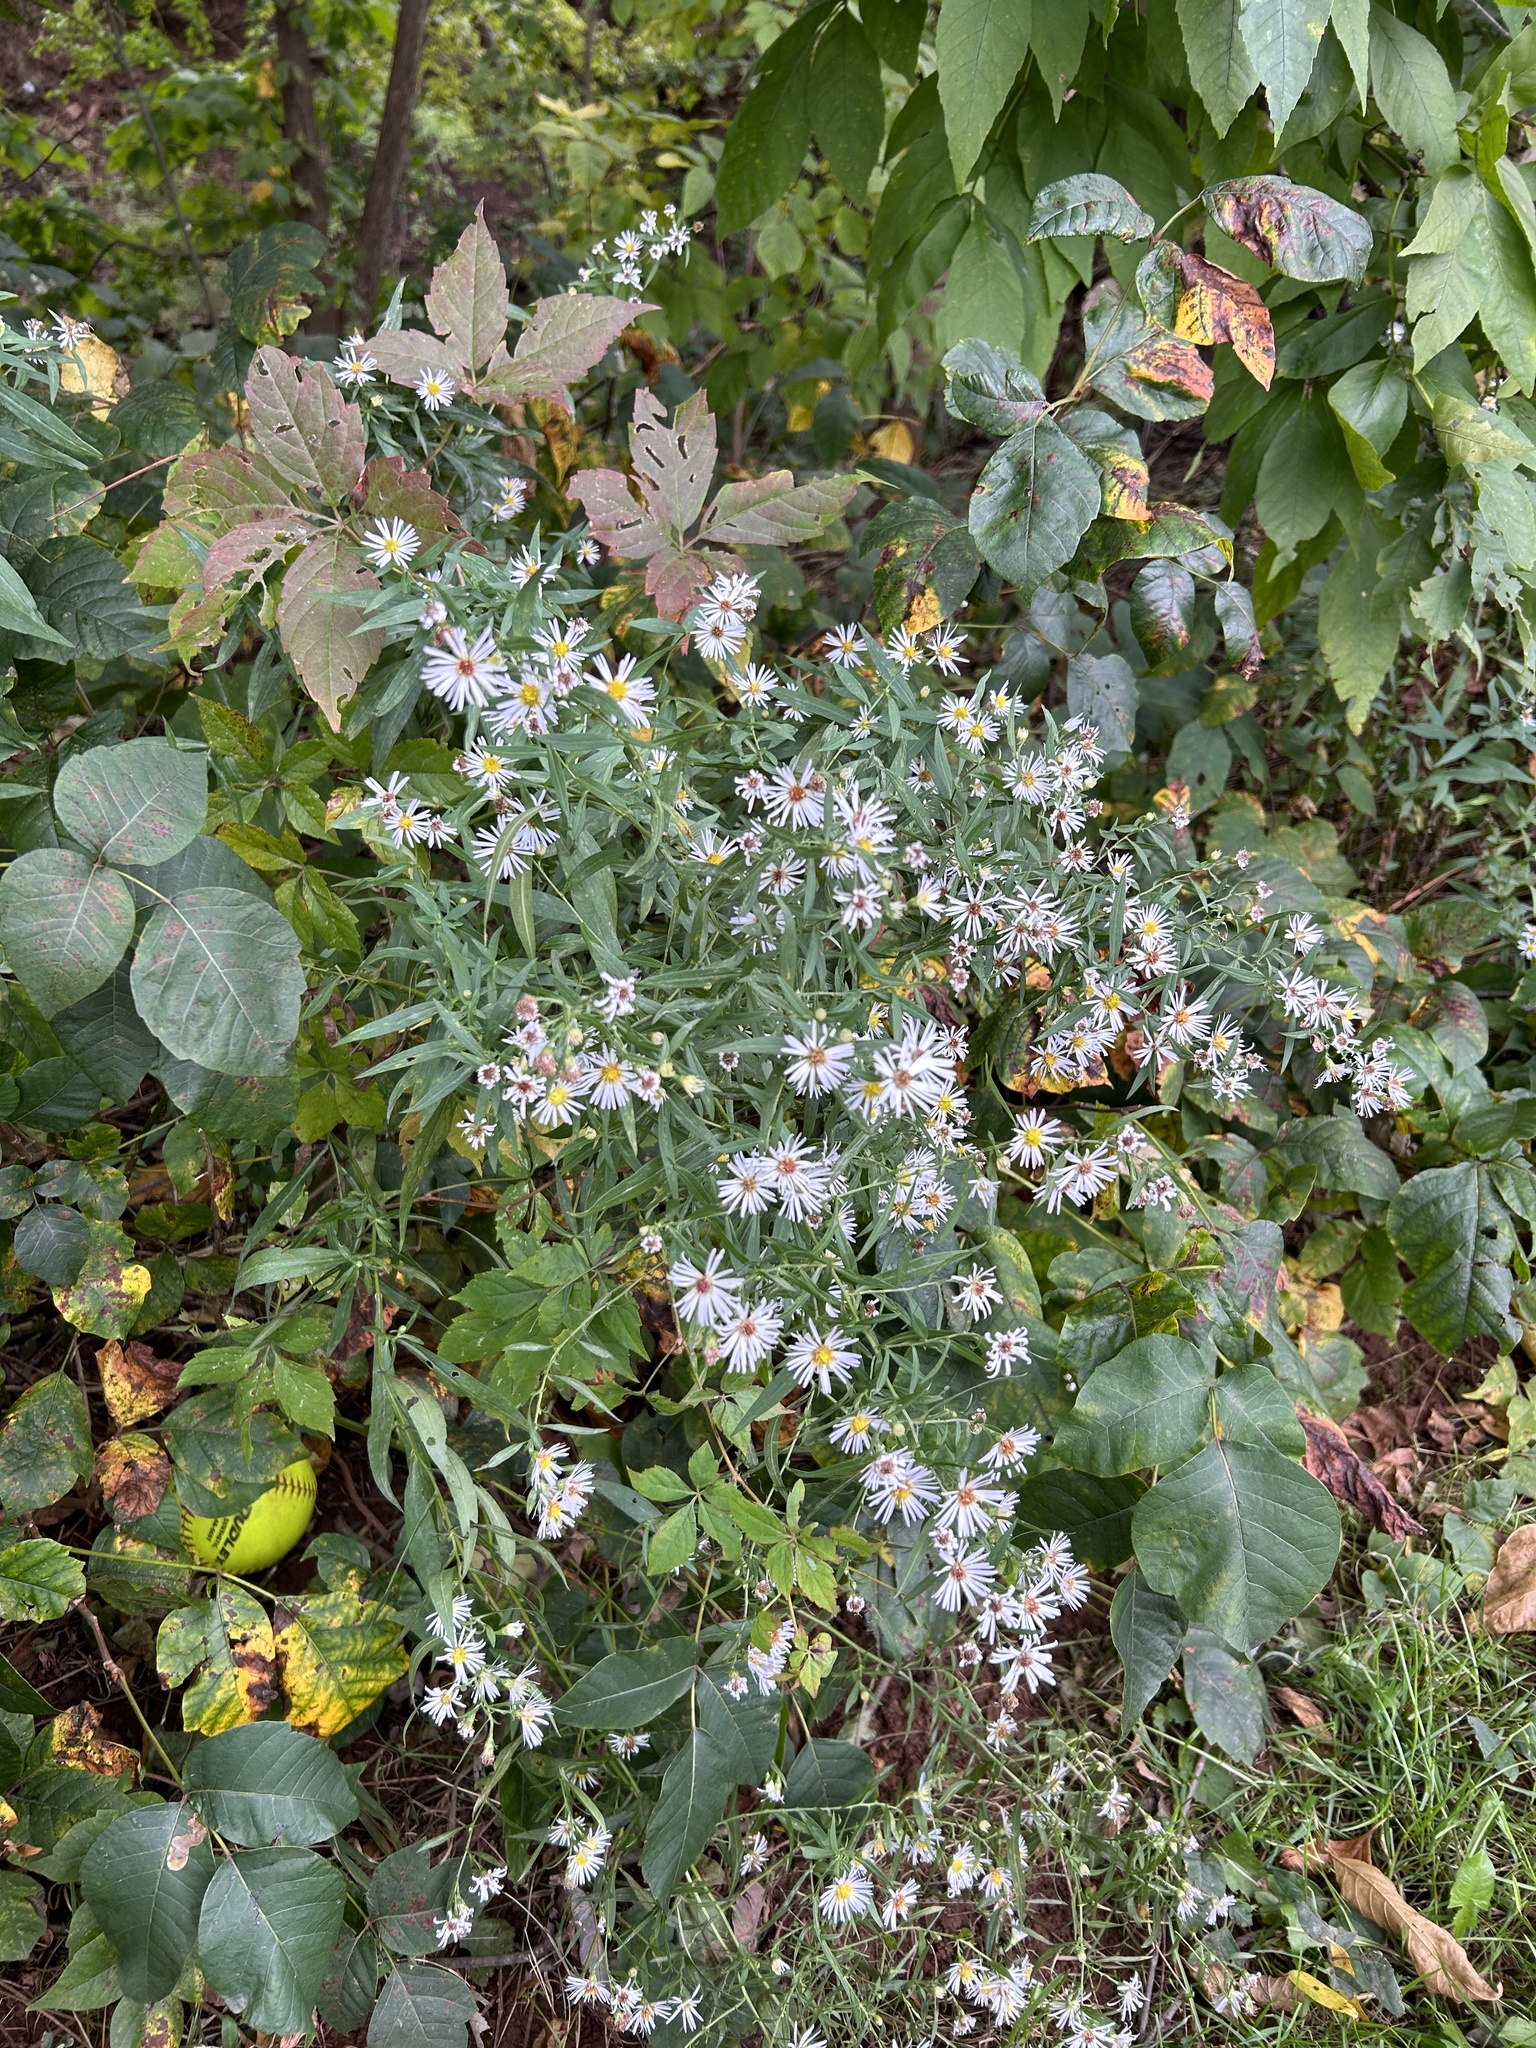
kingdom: Plantae
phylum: Tracheophyta
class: Magnoliopsida
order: Asterales
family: Asteraceae
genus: Symphyotrichum
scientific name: Symphyotrichum lanceolatum
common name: Panicled aster
